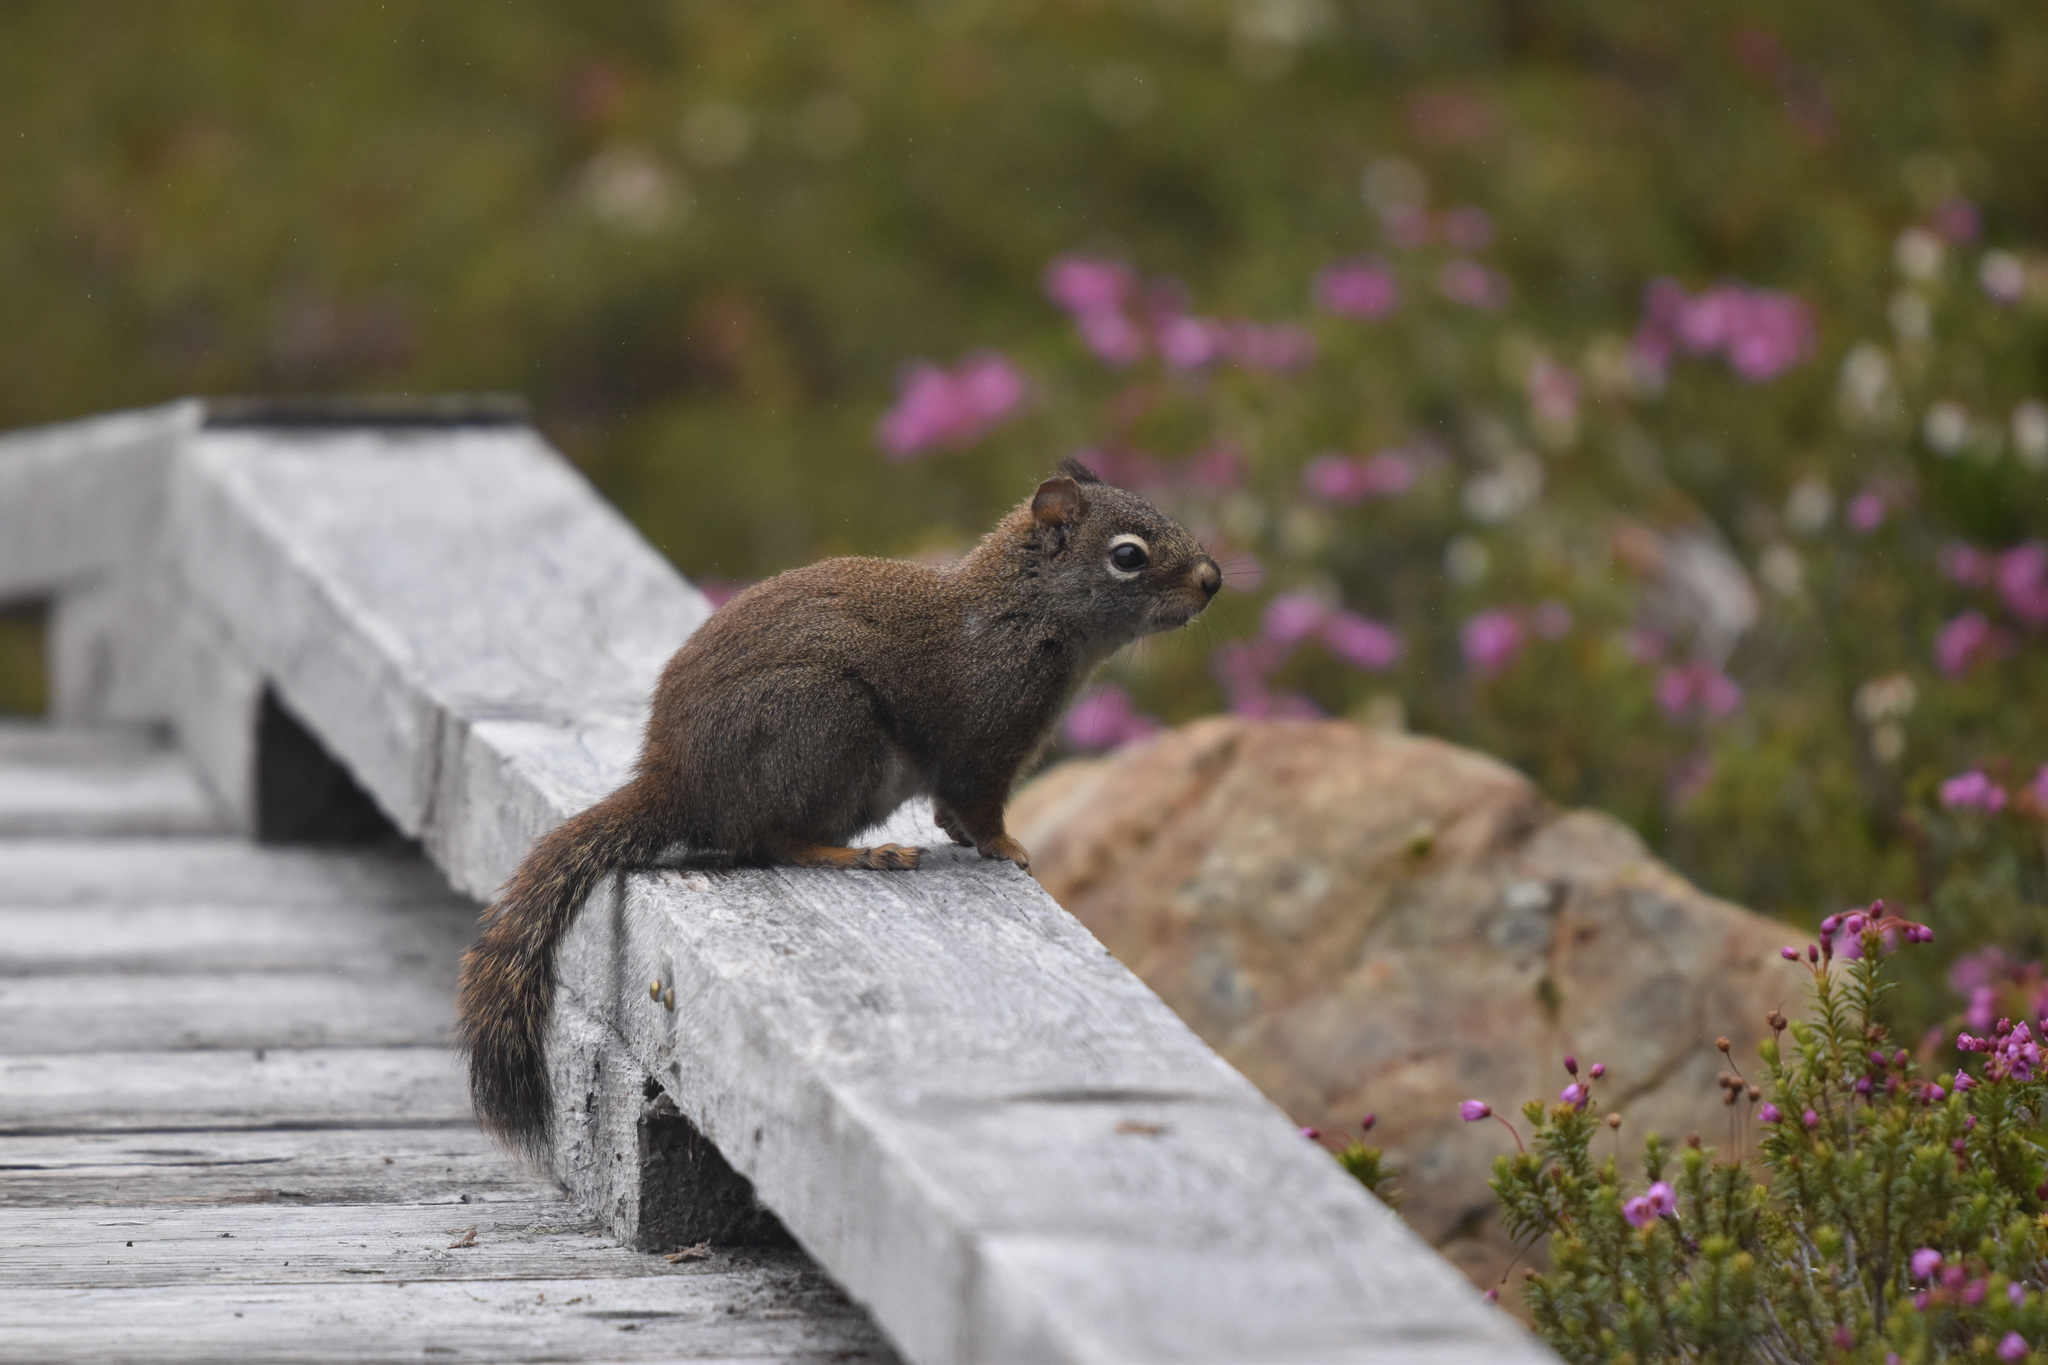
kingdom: Animalia
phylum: Chordata
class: Mammalia
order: Rodentia
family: Sciuridae
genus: Tamiasciurus
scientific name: Tamiasciurus hudsonicus
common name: Red squirrel
